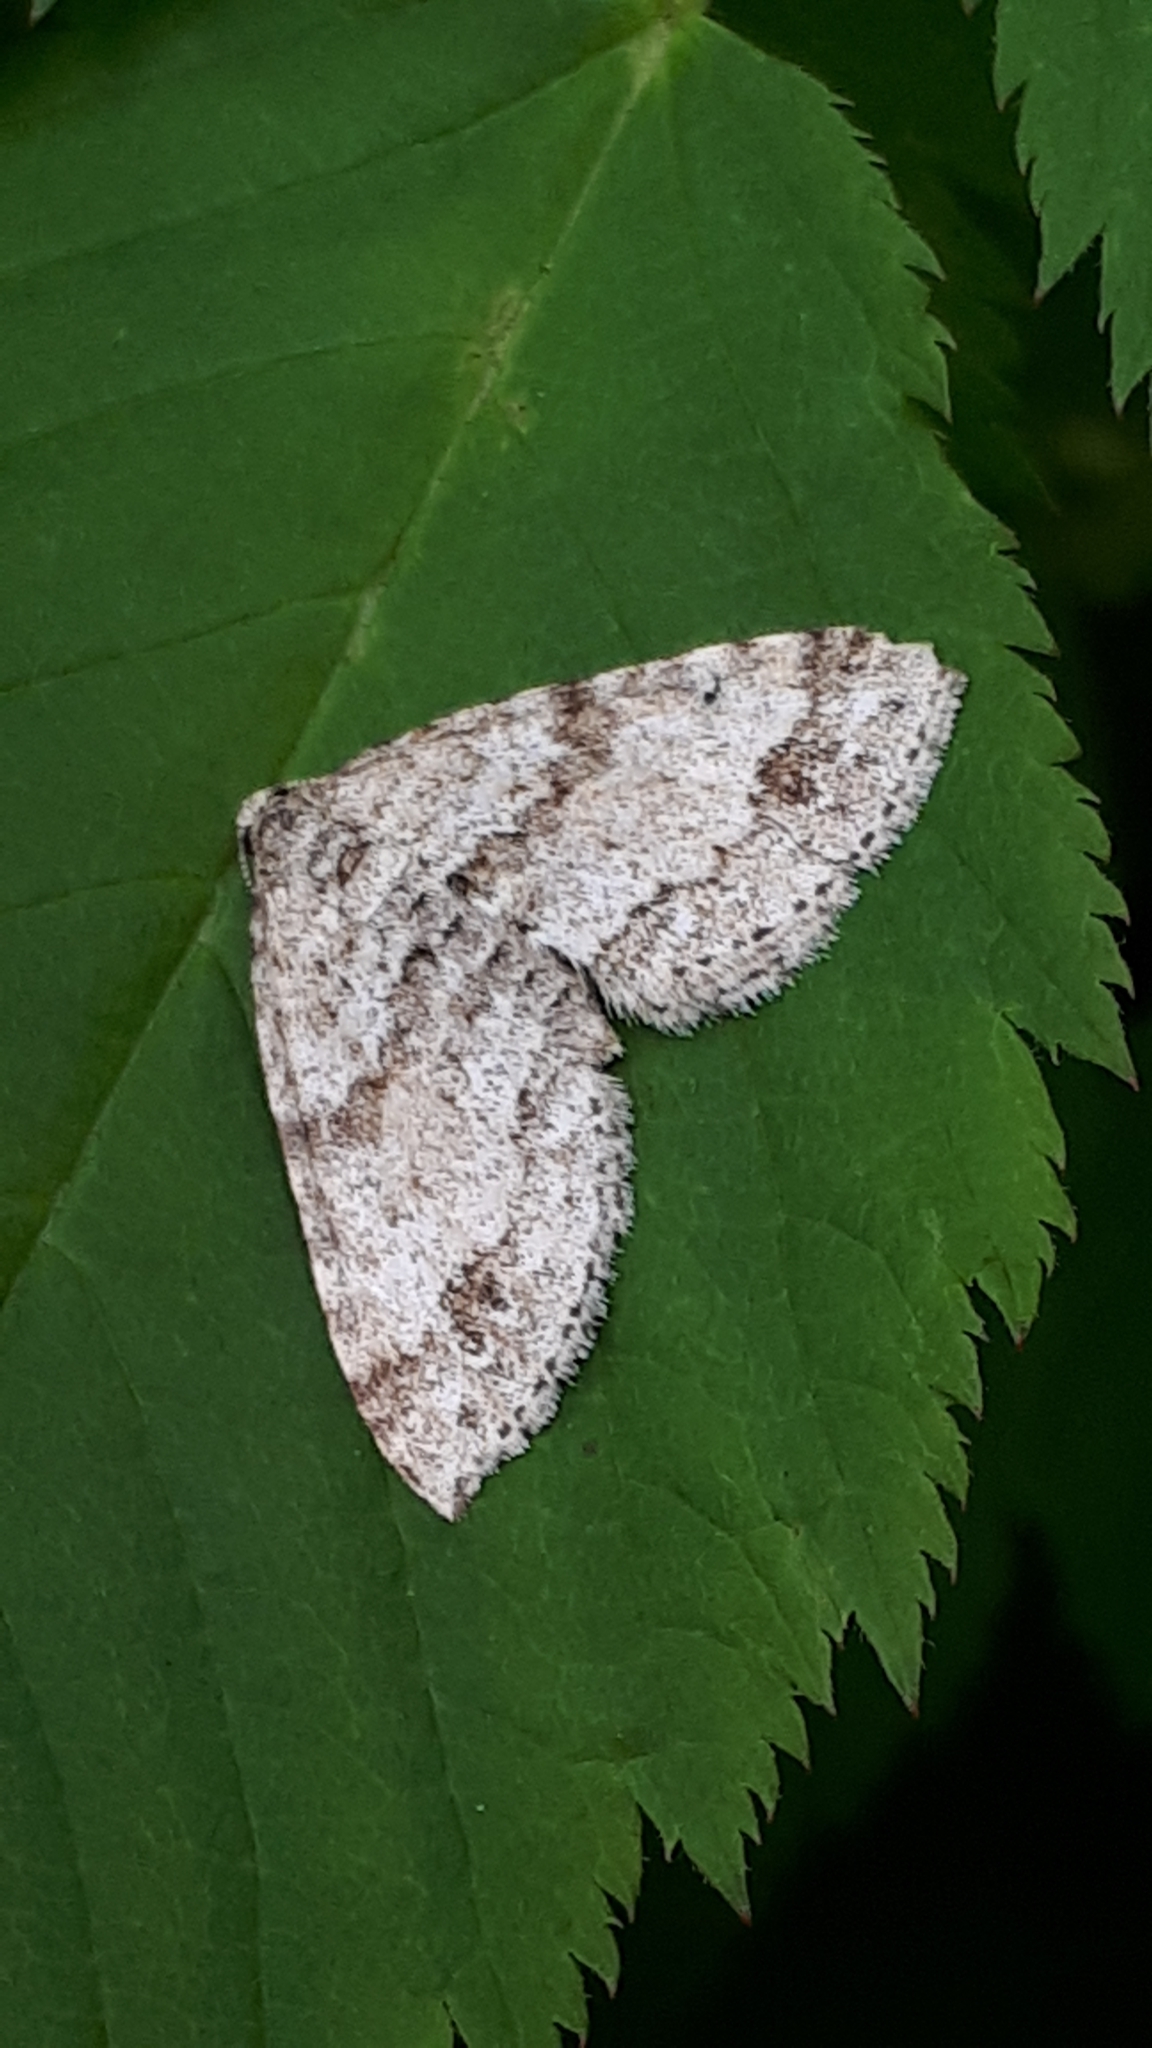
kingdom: Animalia
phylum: Arthropoda
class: Insecta
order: Lepidoptera
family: Geometridae
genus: Perizoma
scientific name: Perizoma didymata
